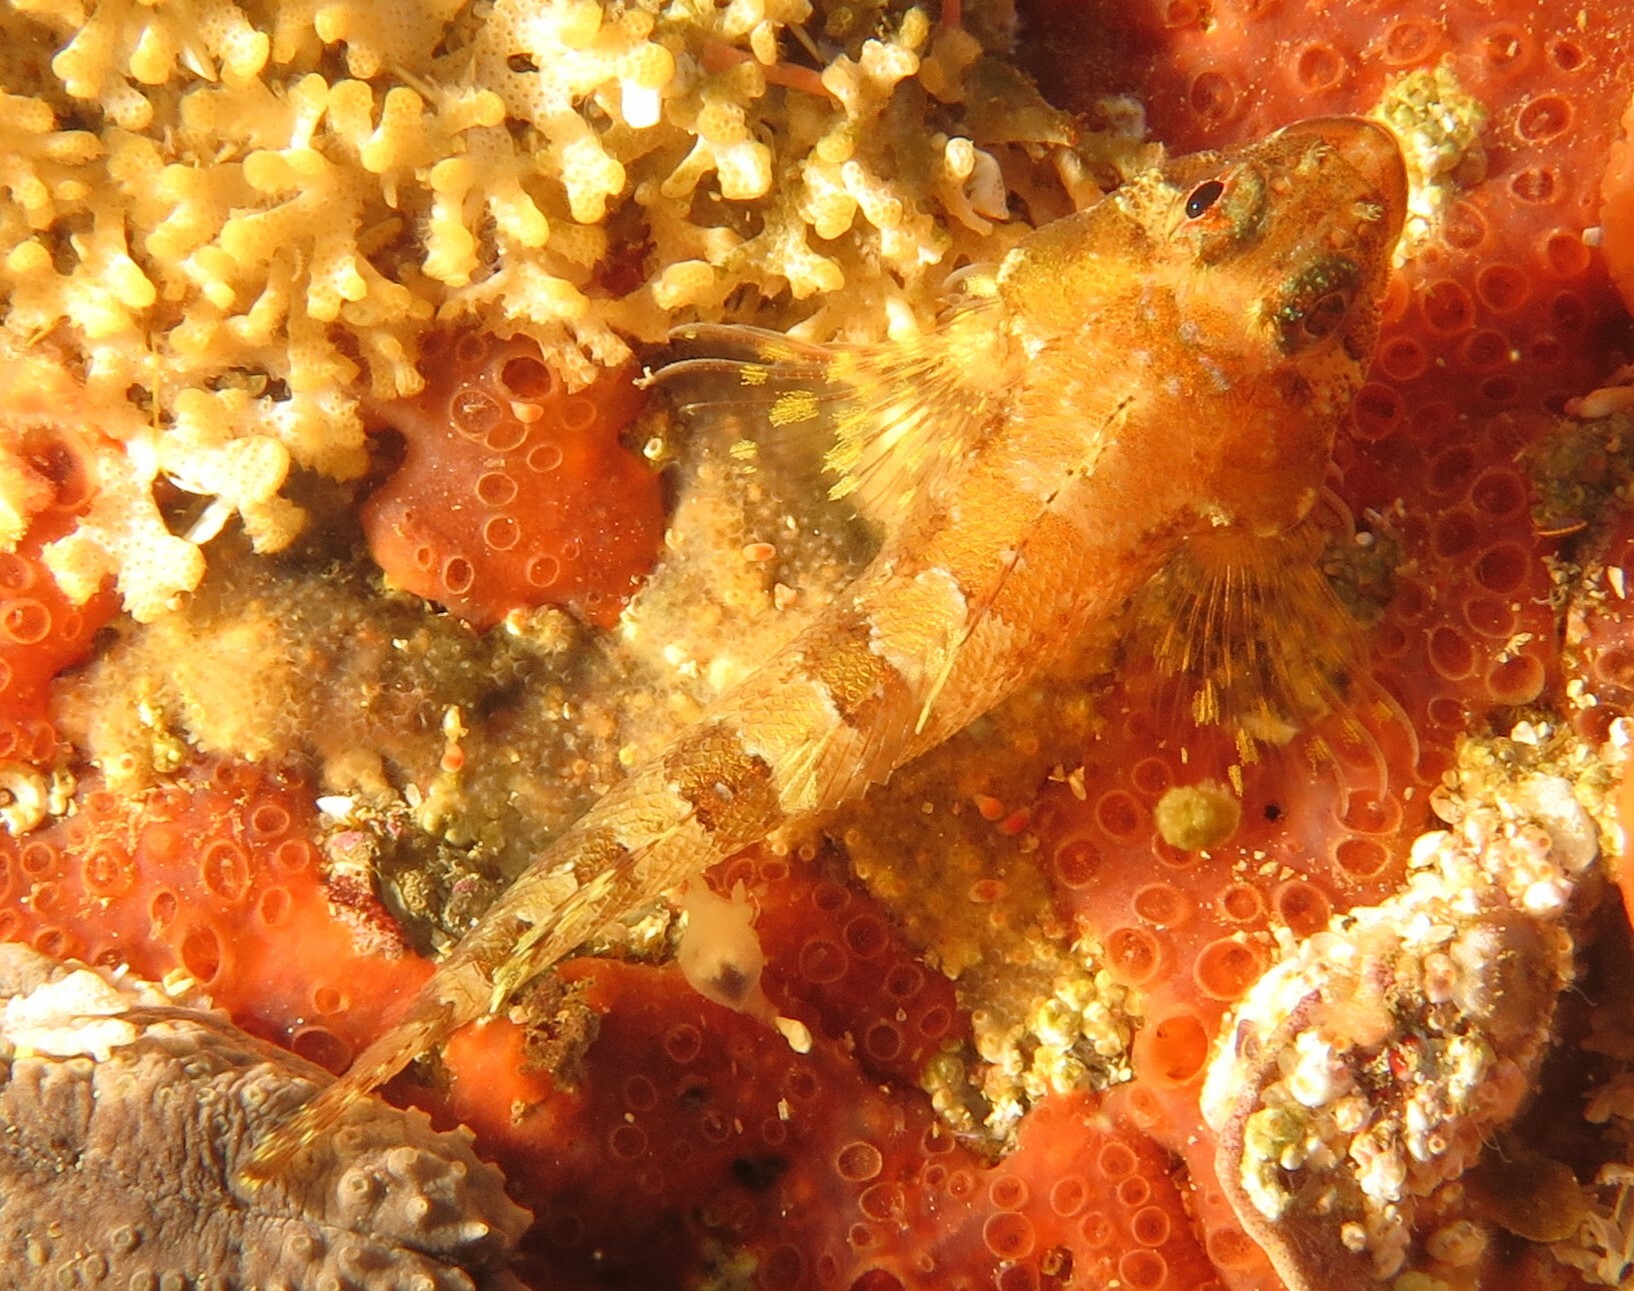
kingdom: Animalia
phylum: Chordata
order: Perciformes
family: Tripterygiidae
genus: Cremnochorites
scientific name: Cremnochorites capensis
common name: Cape triplefin
